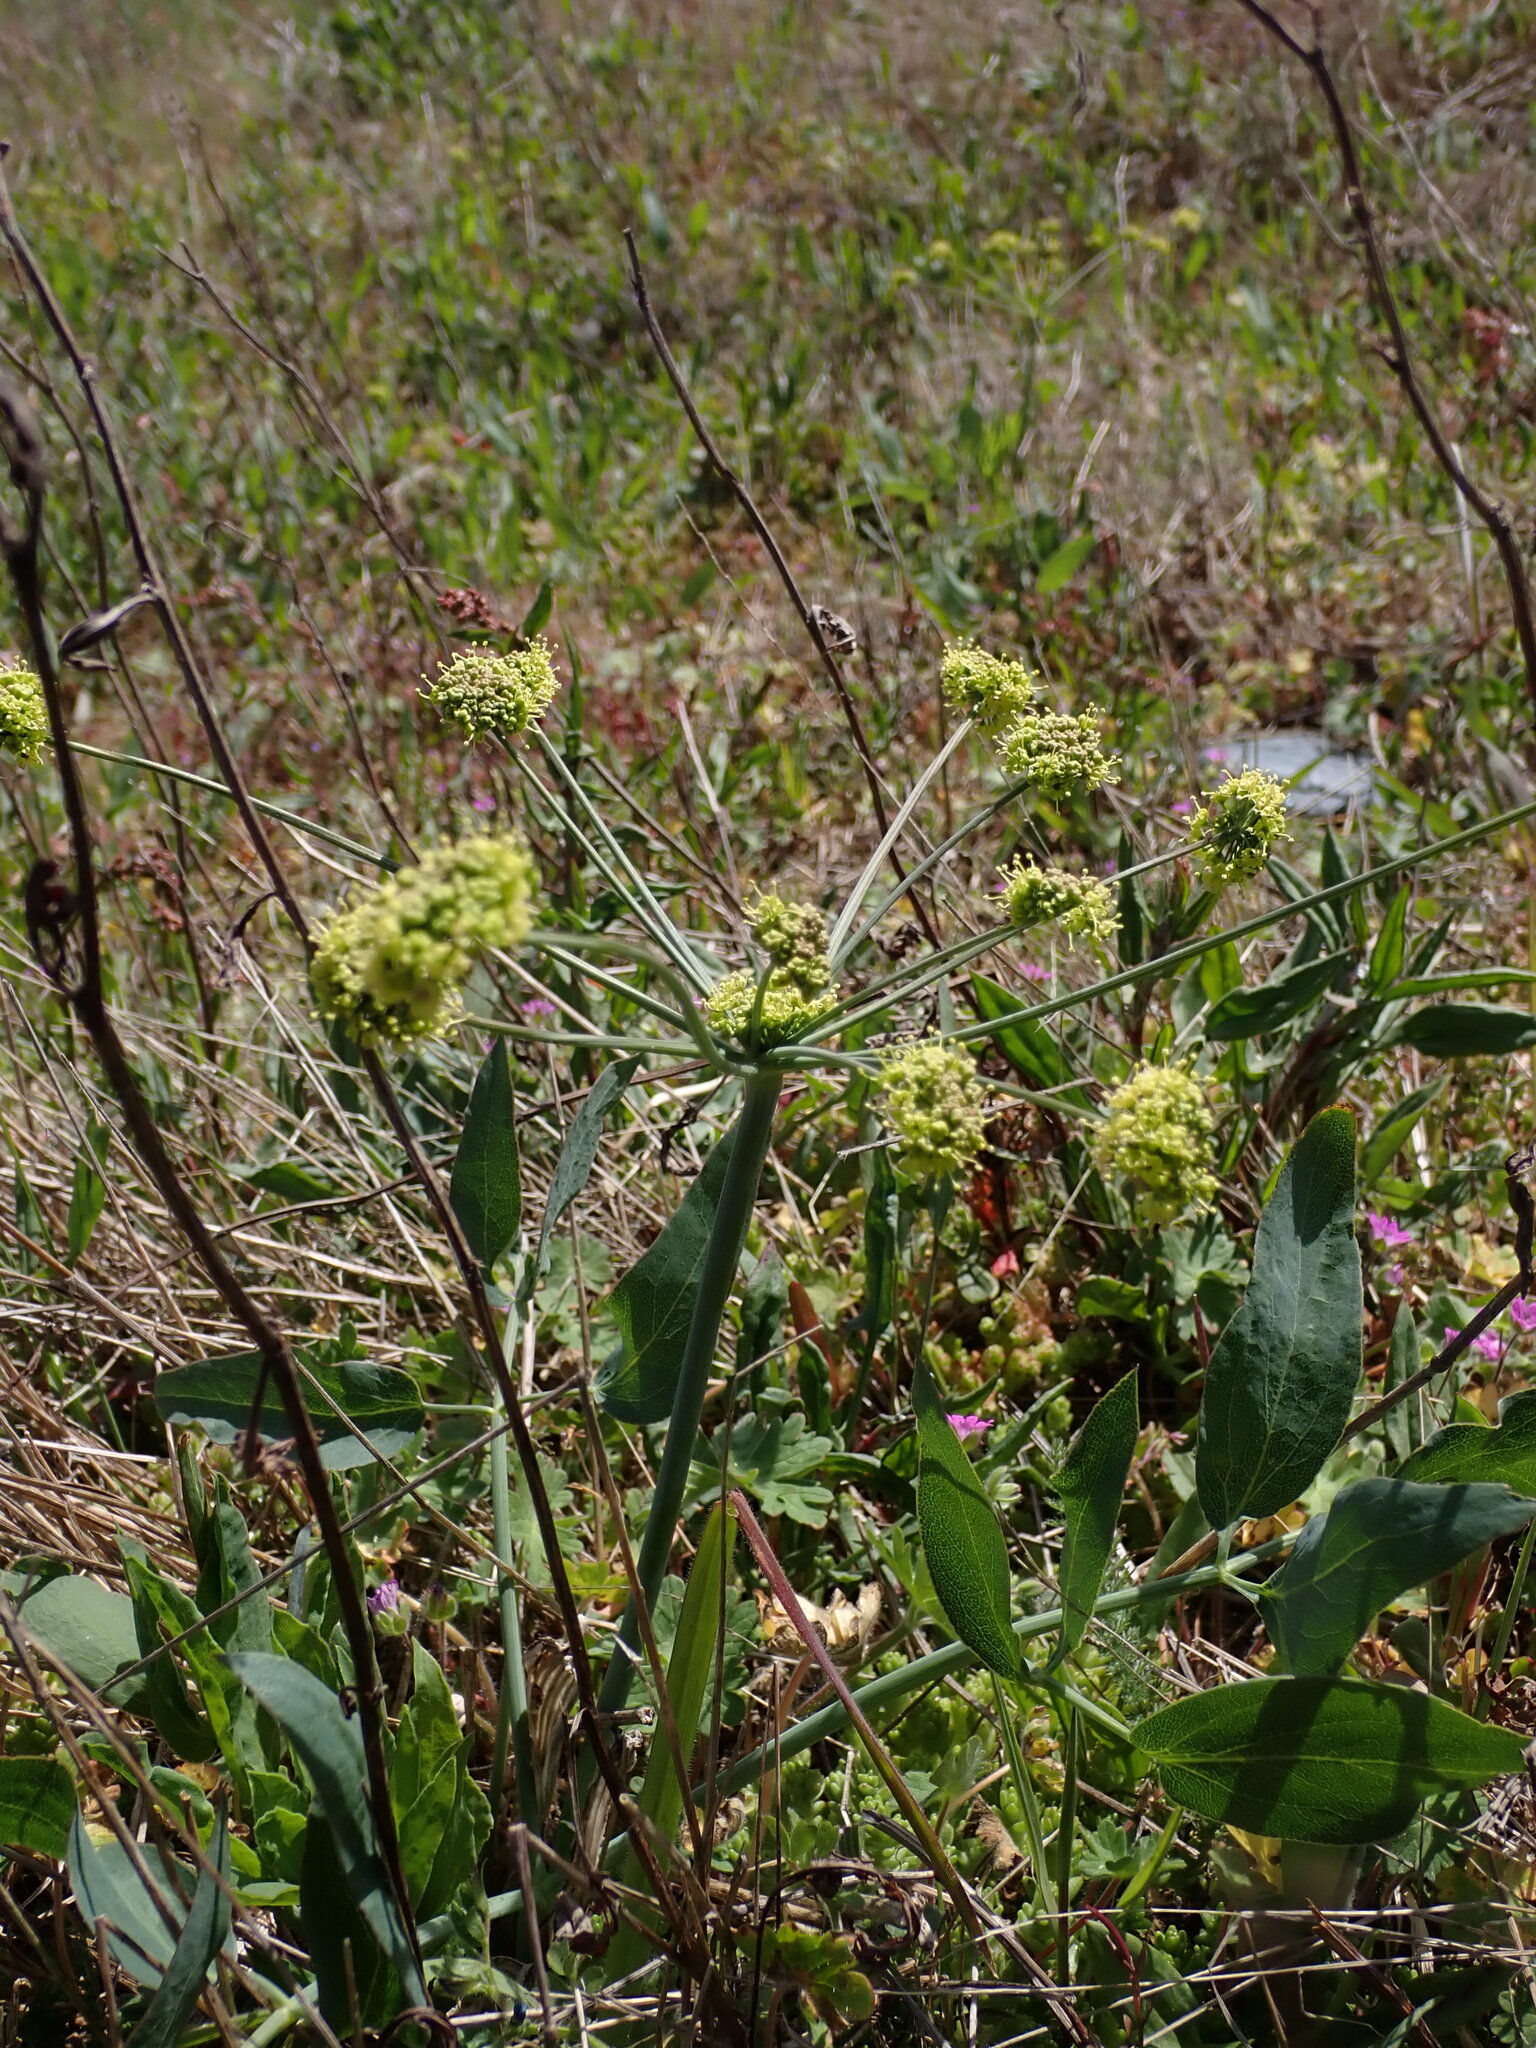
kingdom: Plantae
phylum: Tracheophyta
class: Magnoliopsida
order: Apiales
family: Apiaceae
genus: Lomatium
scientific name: Lomatium nudicaule
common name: Pestle lomatium
